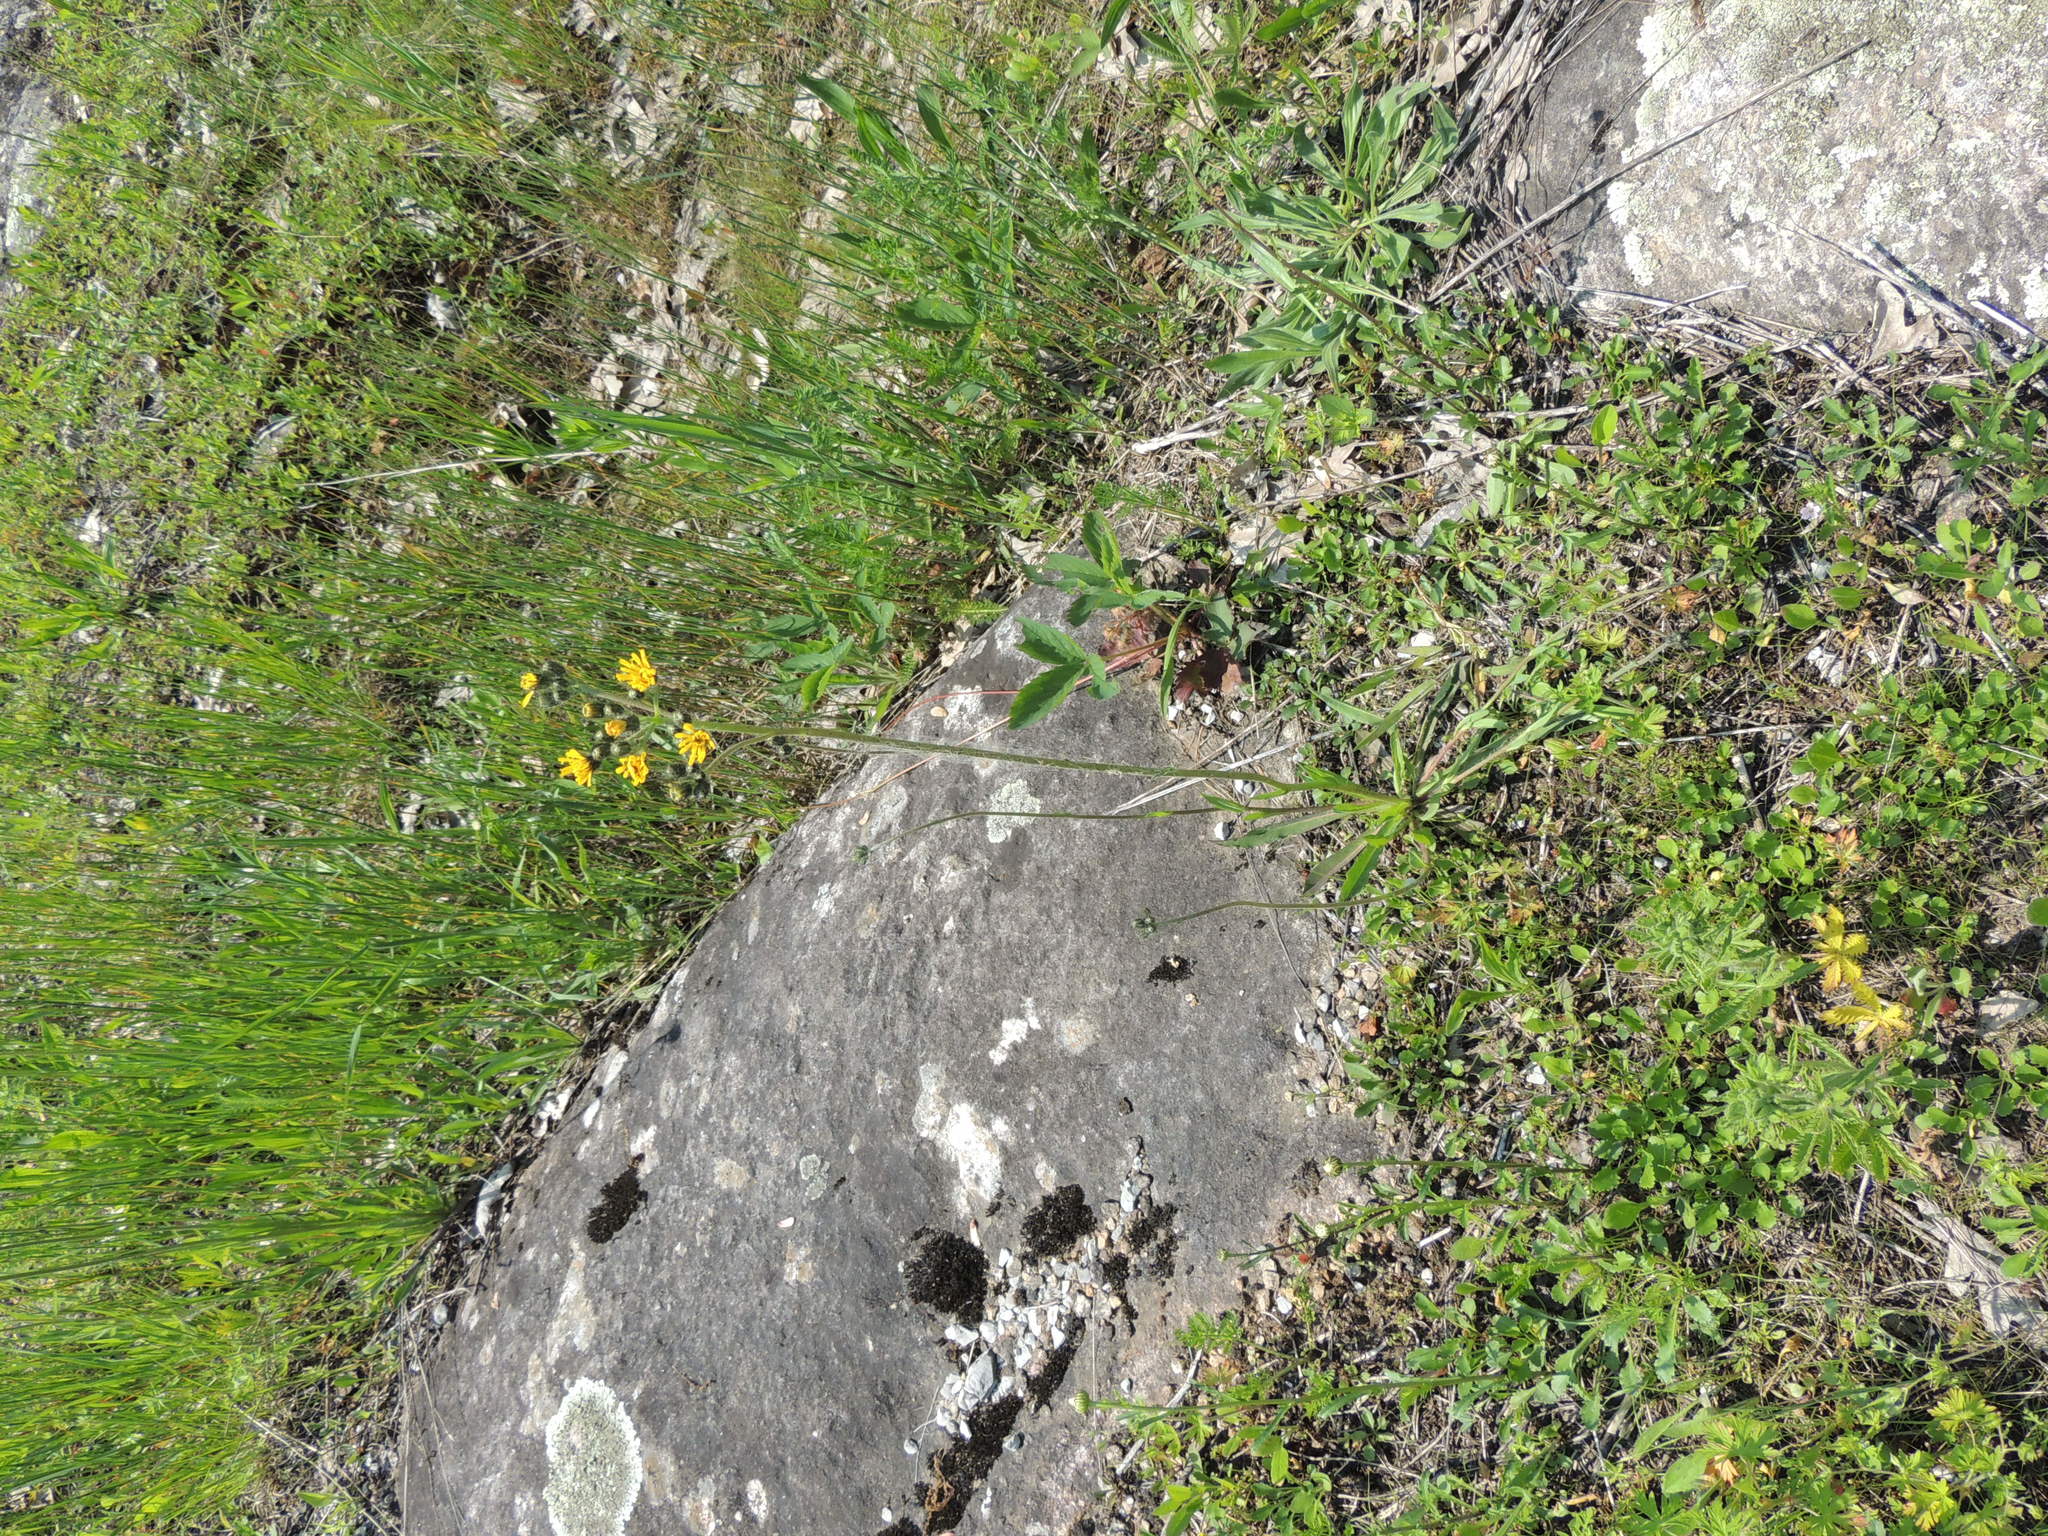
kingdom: Plantae
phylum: Tracheophyta
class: Magnoliopsida
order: Asterales
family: Asteraceae
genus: Pilosella
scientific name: Pilosella caespitosa
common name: Yellow fox-and-cubs
